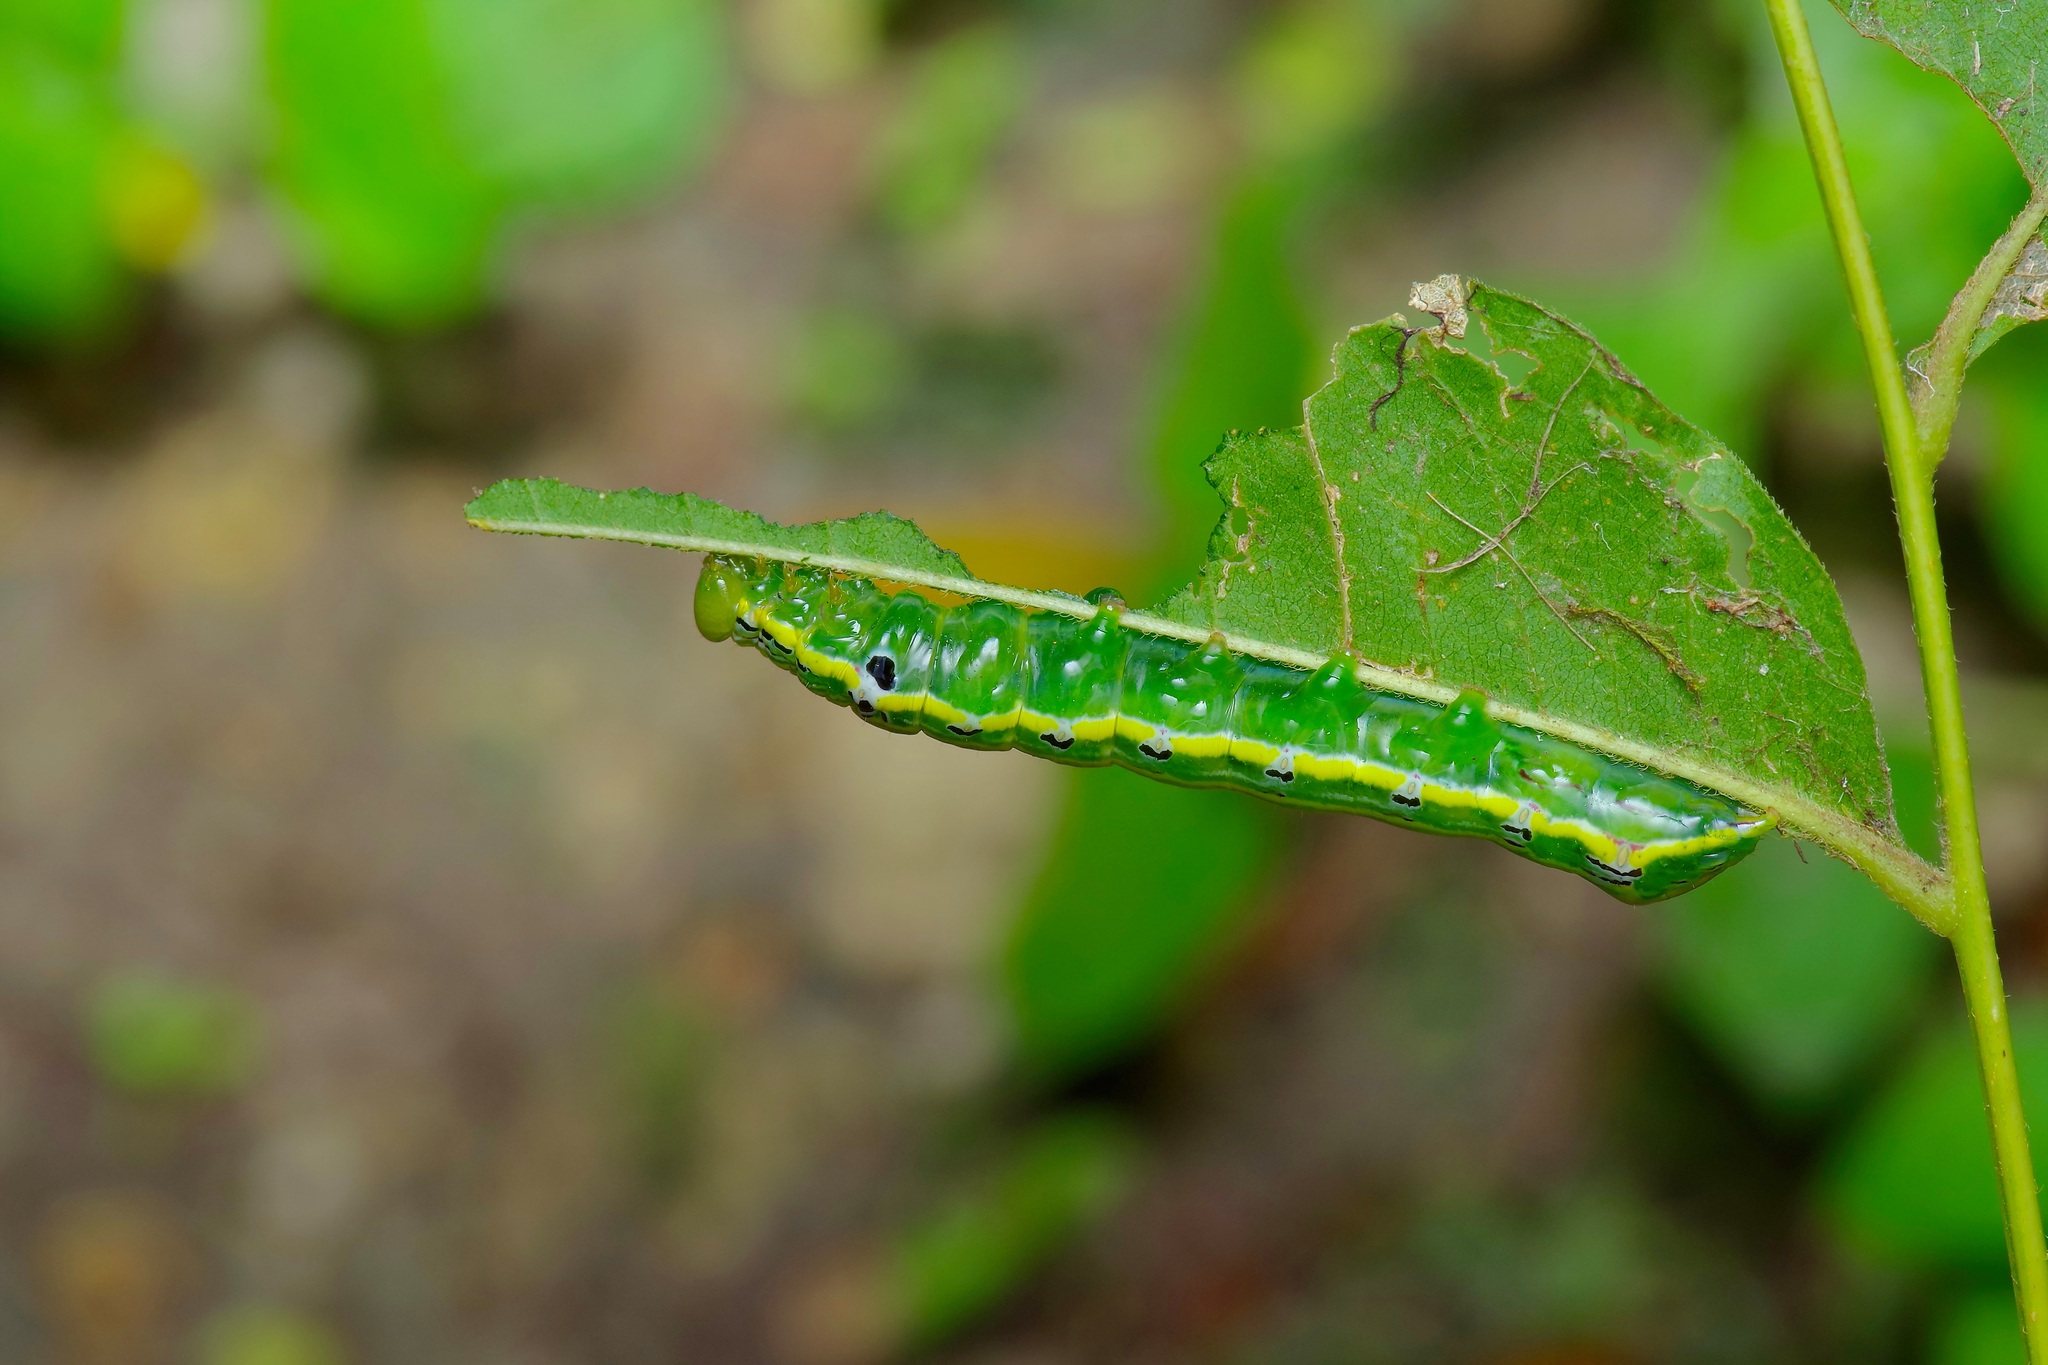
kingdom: Animalia
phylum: Arthropoda
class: Insecta
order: Lepidoptera
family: Notodontidae
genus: Elasmia
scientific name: Elasmia cave
